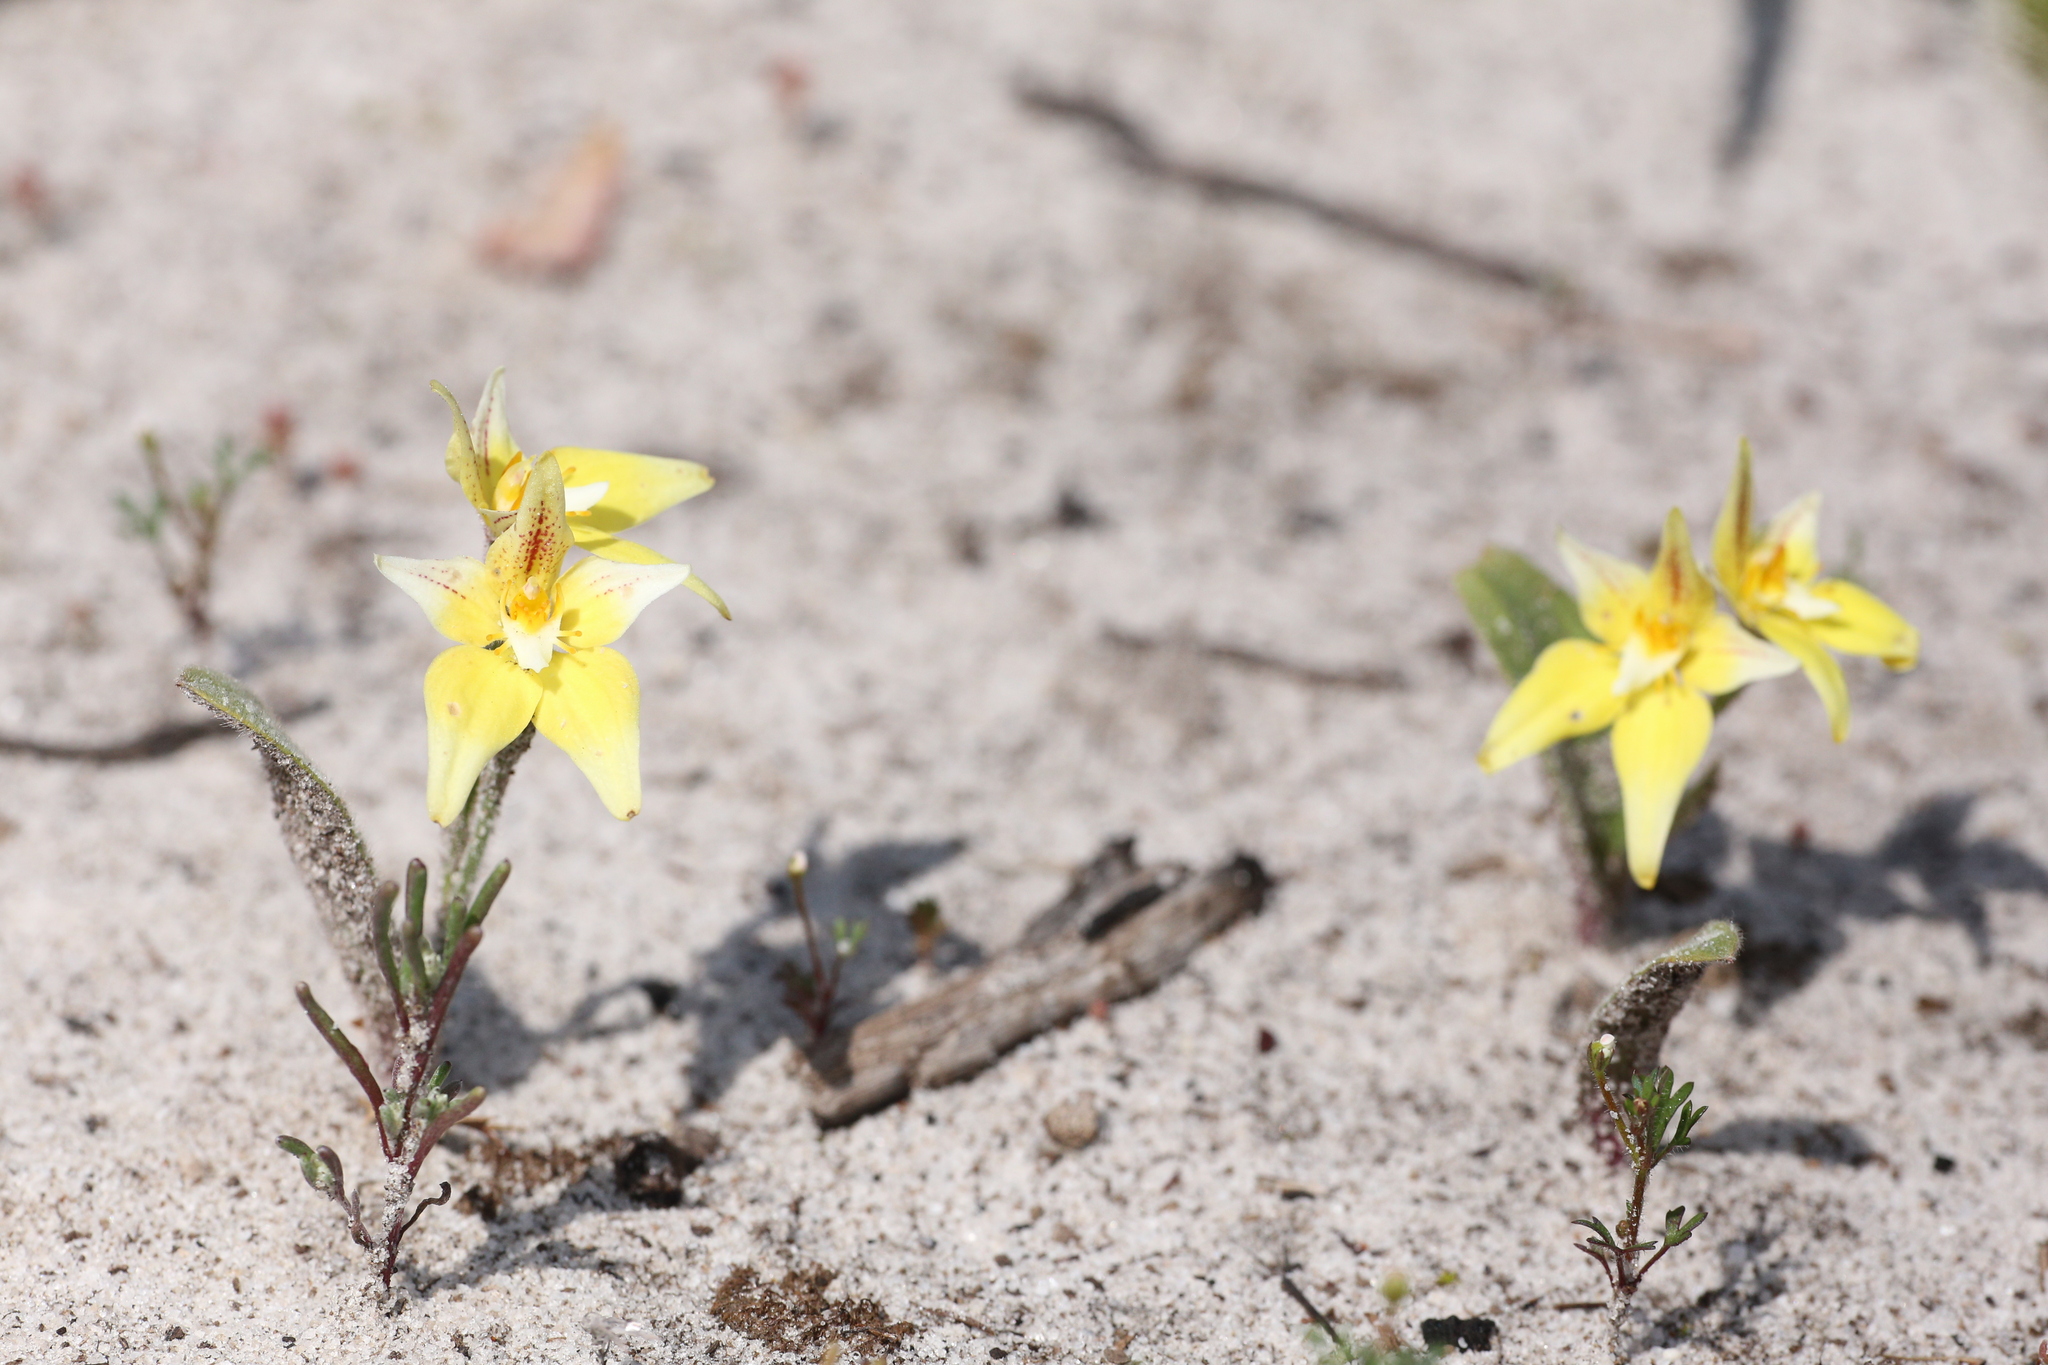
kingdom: Plantae
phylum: Tracheophyta
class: Liliopsida
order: Asparagales
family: Orchidaceae
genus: Caladenia
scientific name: Caladenia flava
